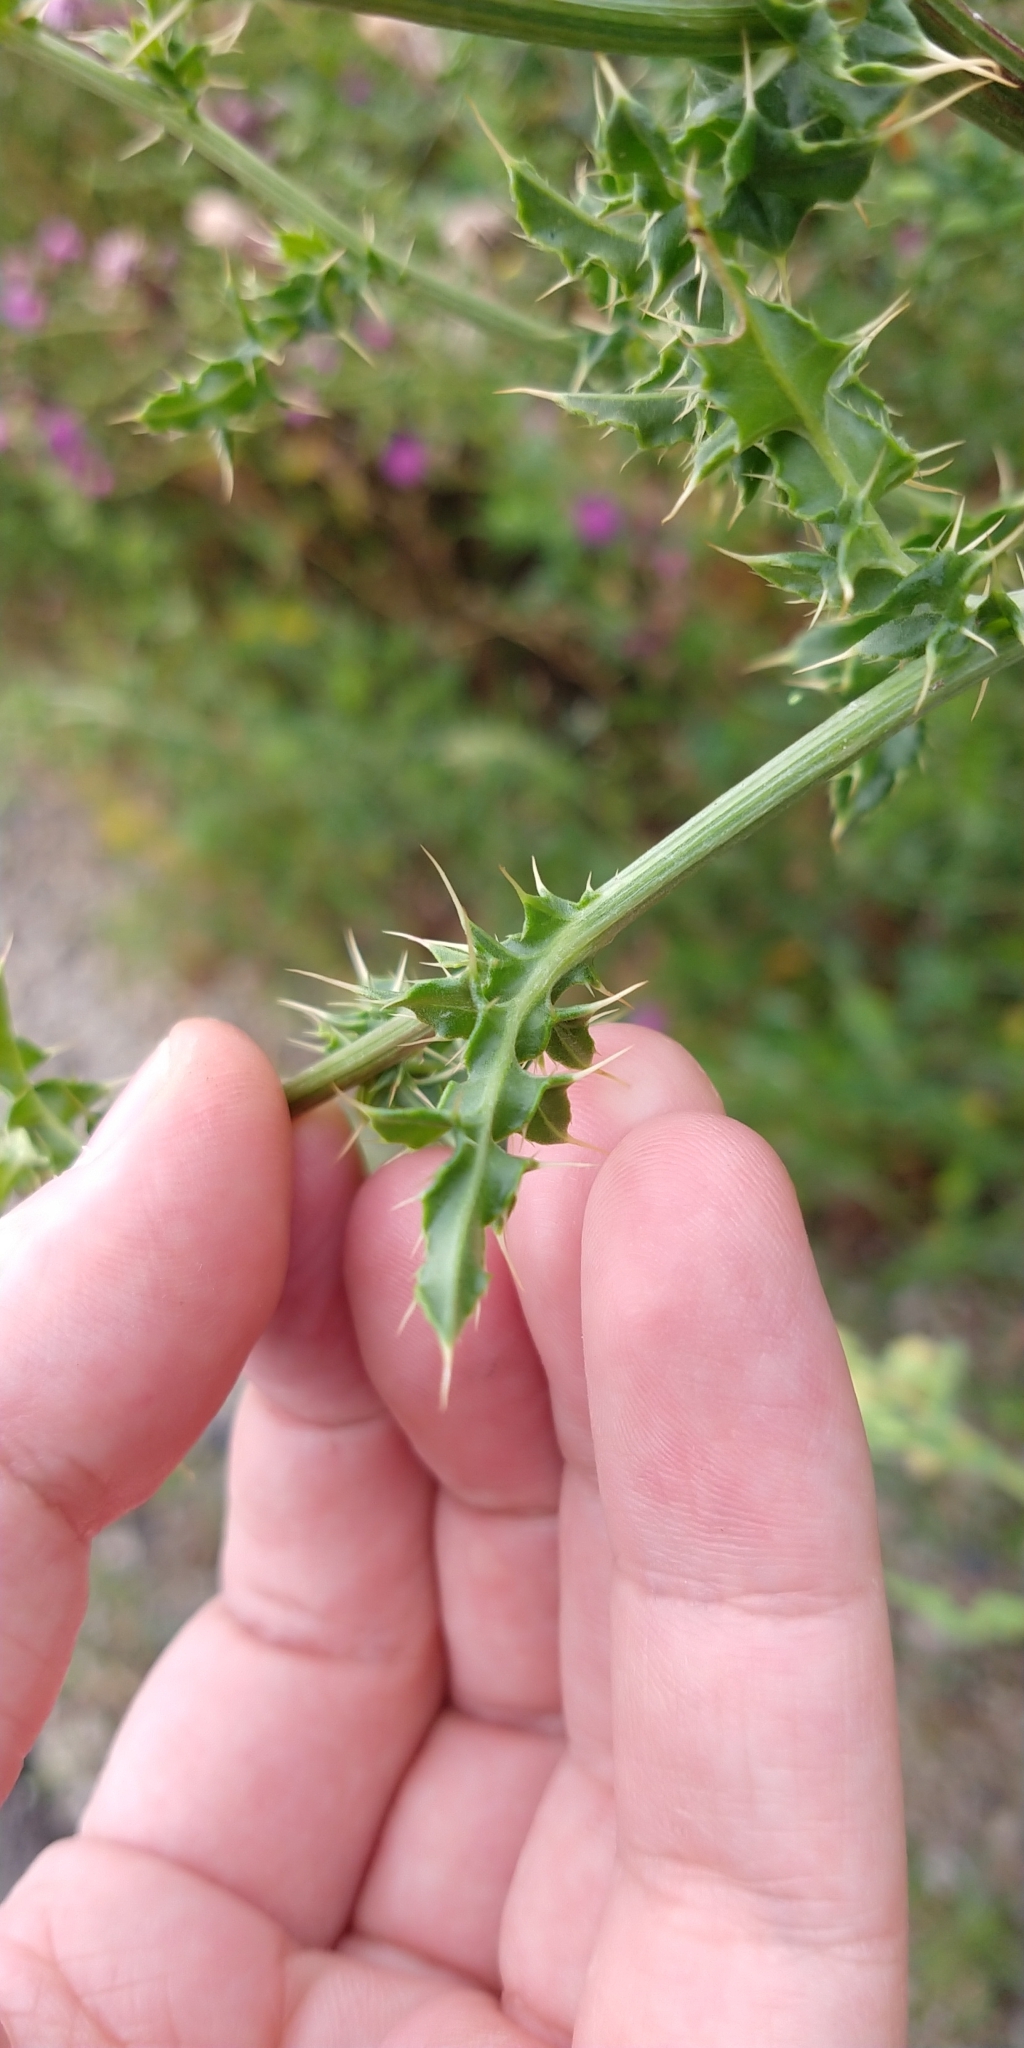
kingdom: Plantae
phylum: Tracheophyta
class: Magnoliopsida
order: Asterales
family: Asteraceae
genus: Cirsium
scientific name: Cirsium arvense
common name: Creeping thistle
